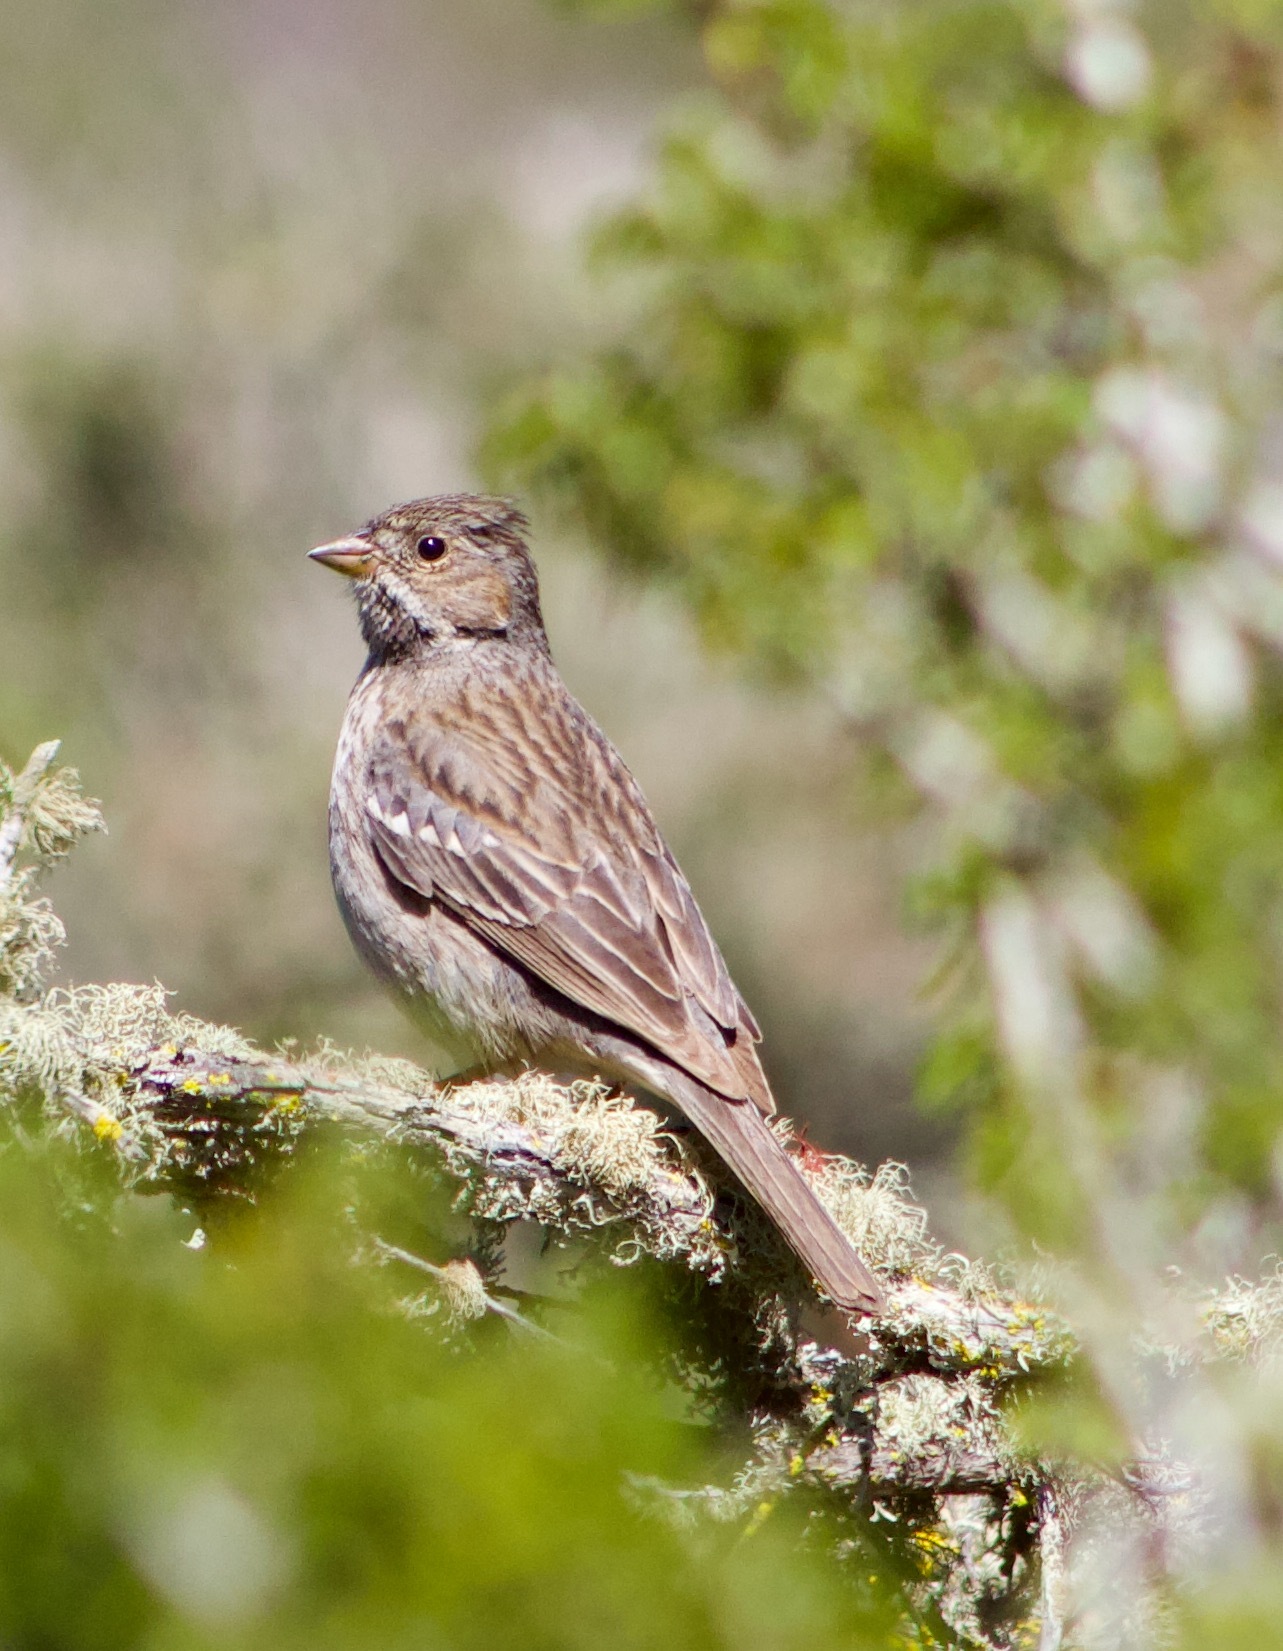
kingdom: Animalia
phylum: Chordata
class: Aves
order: Passeriformes
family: Thraupidae
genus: Rhopospina
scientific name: Rhopospina fruticeti
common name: Mourning sierra finch
